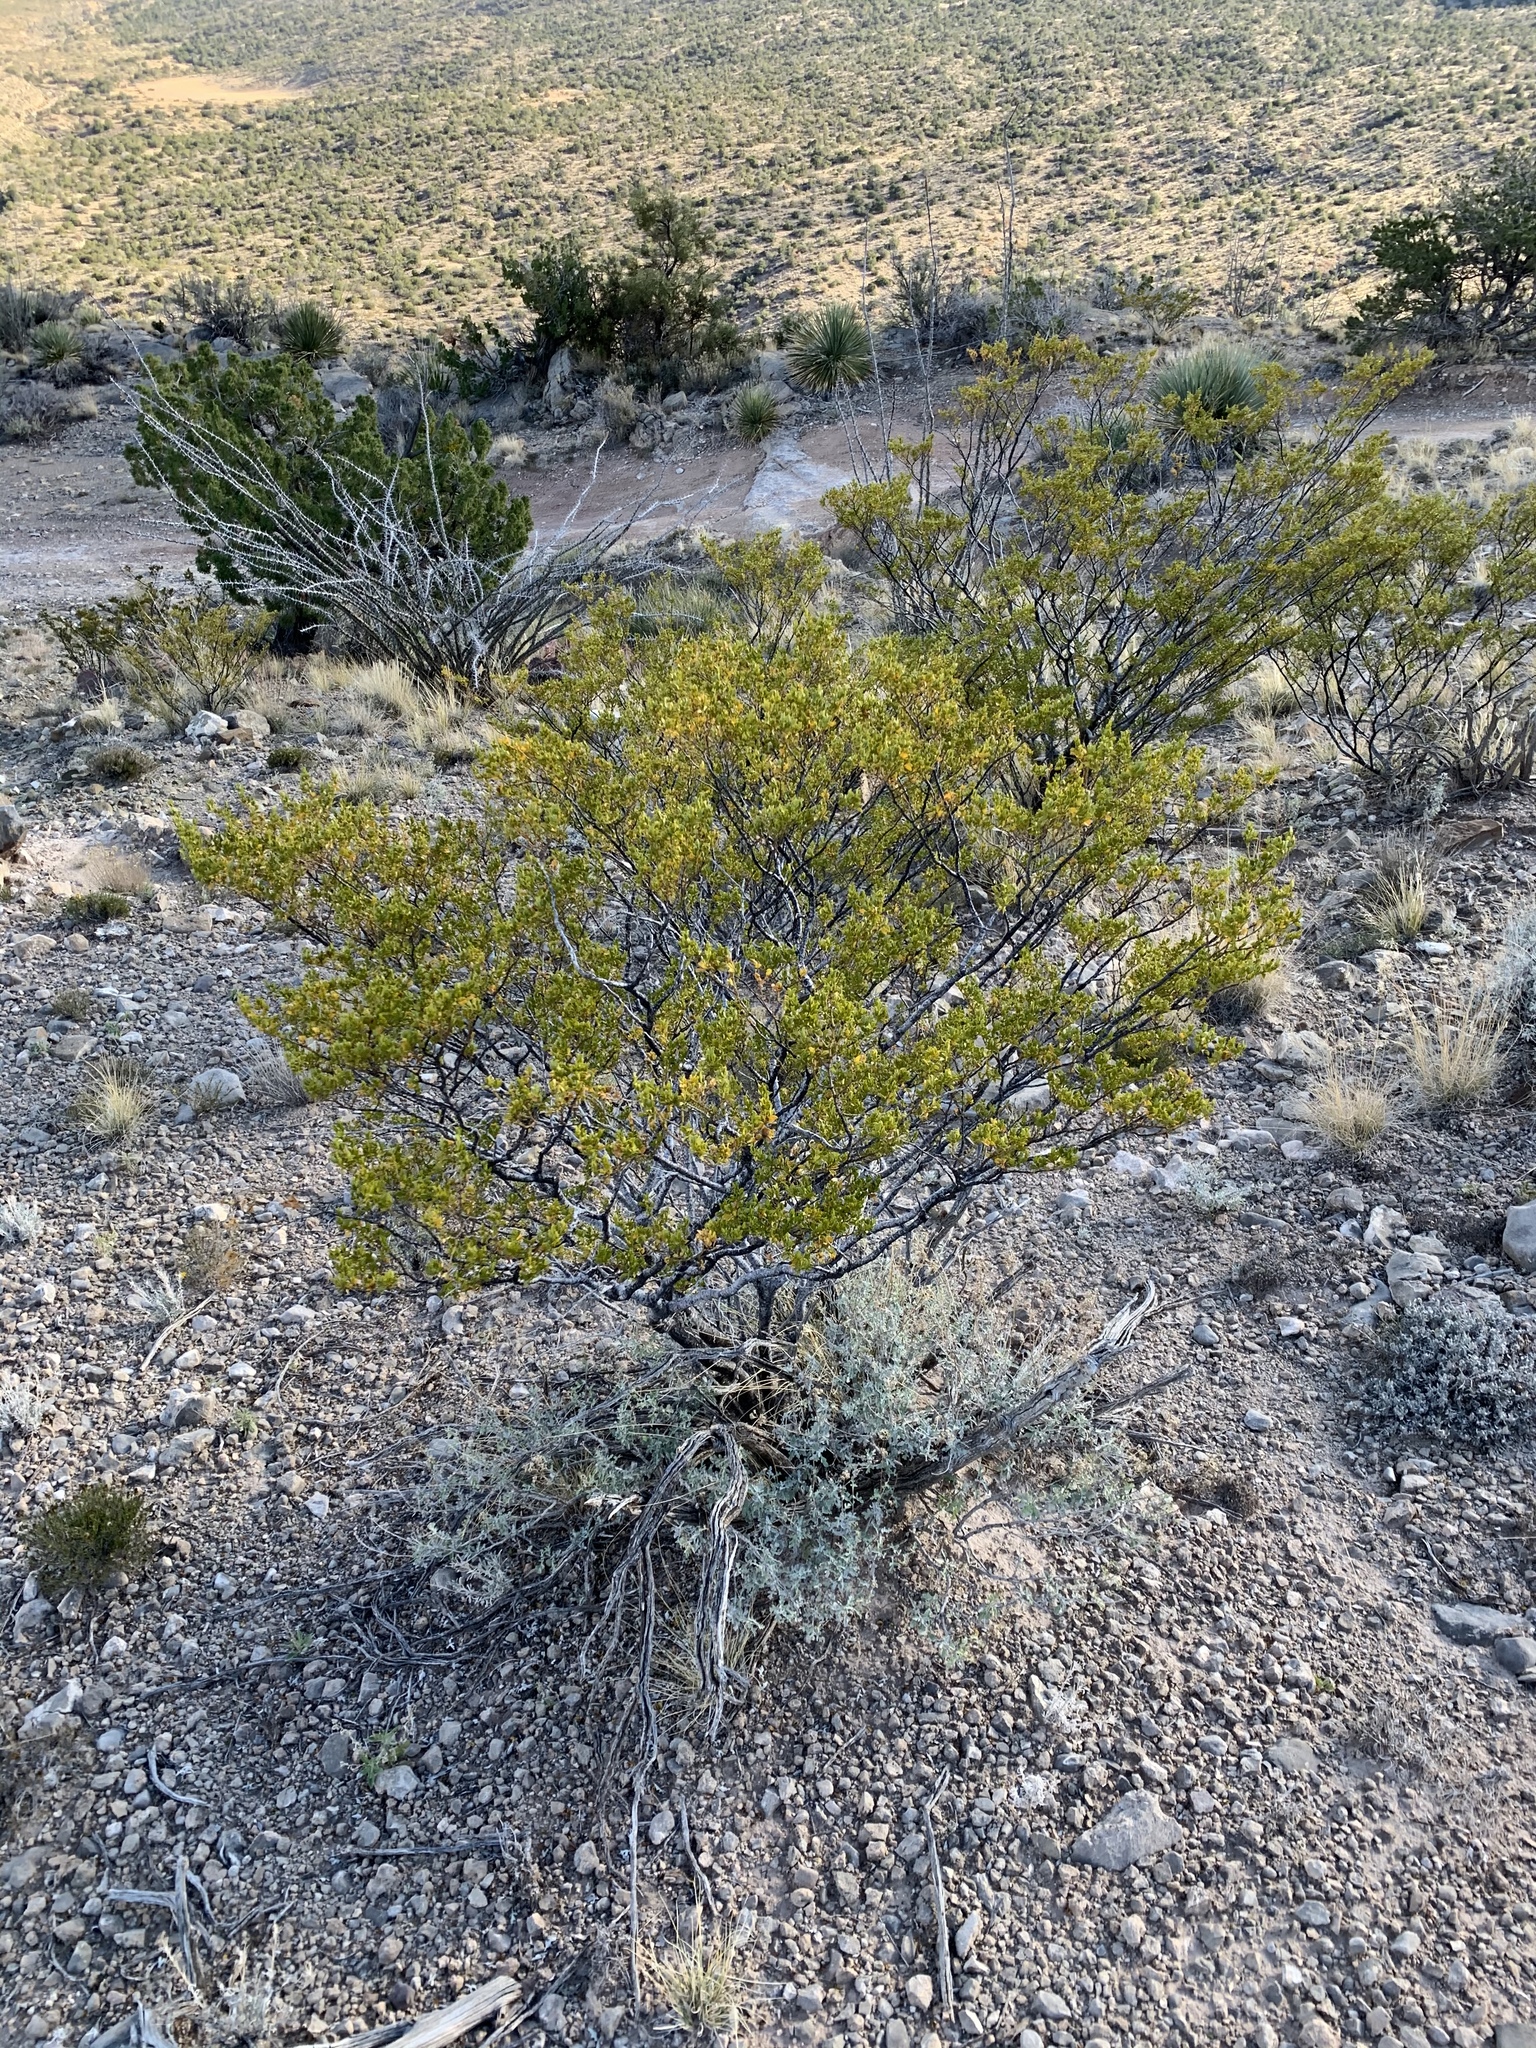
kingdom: Plantae
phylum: Tracheophyta
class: Magnoliopsida
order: Zygophyllales
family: Zygophyllaceae
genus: Larrea
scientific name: Larrea tridentata
